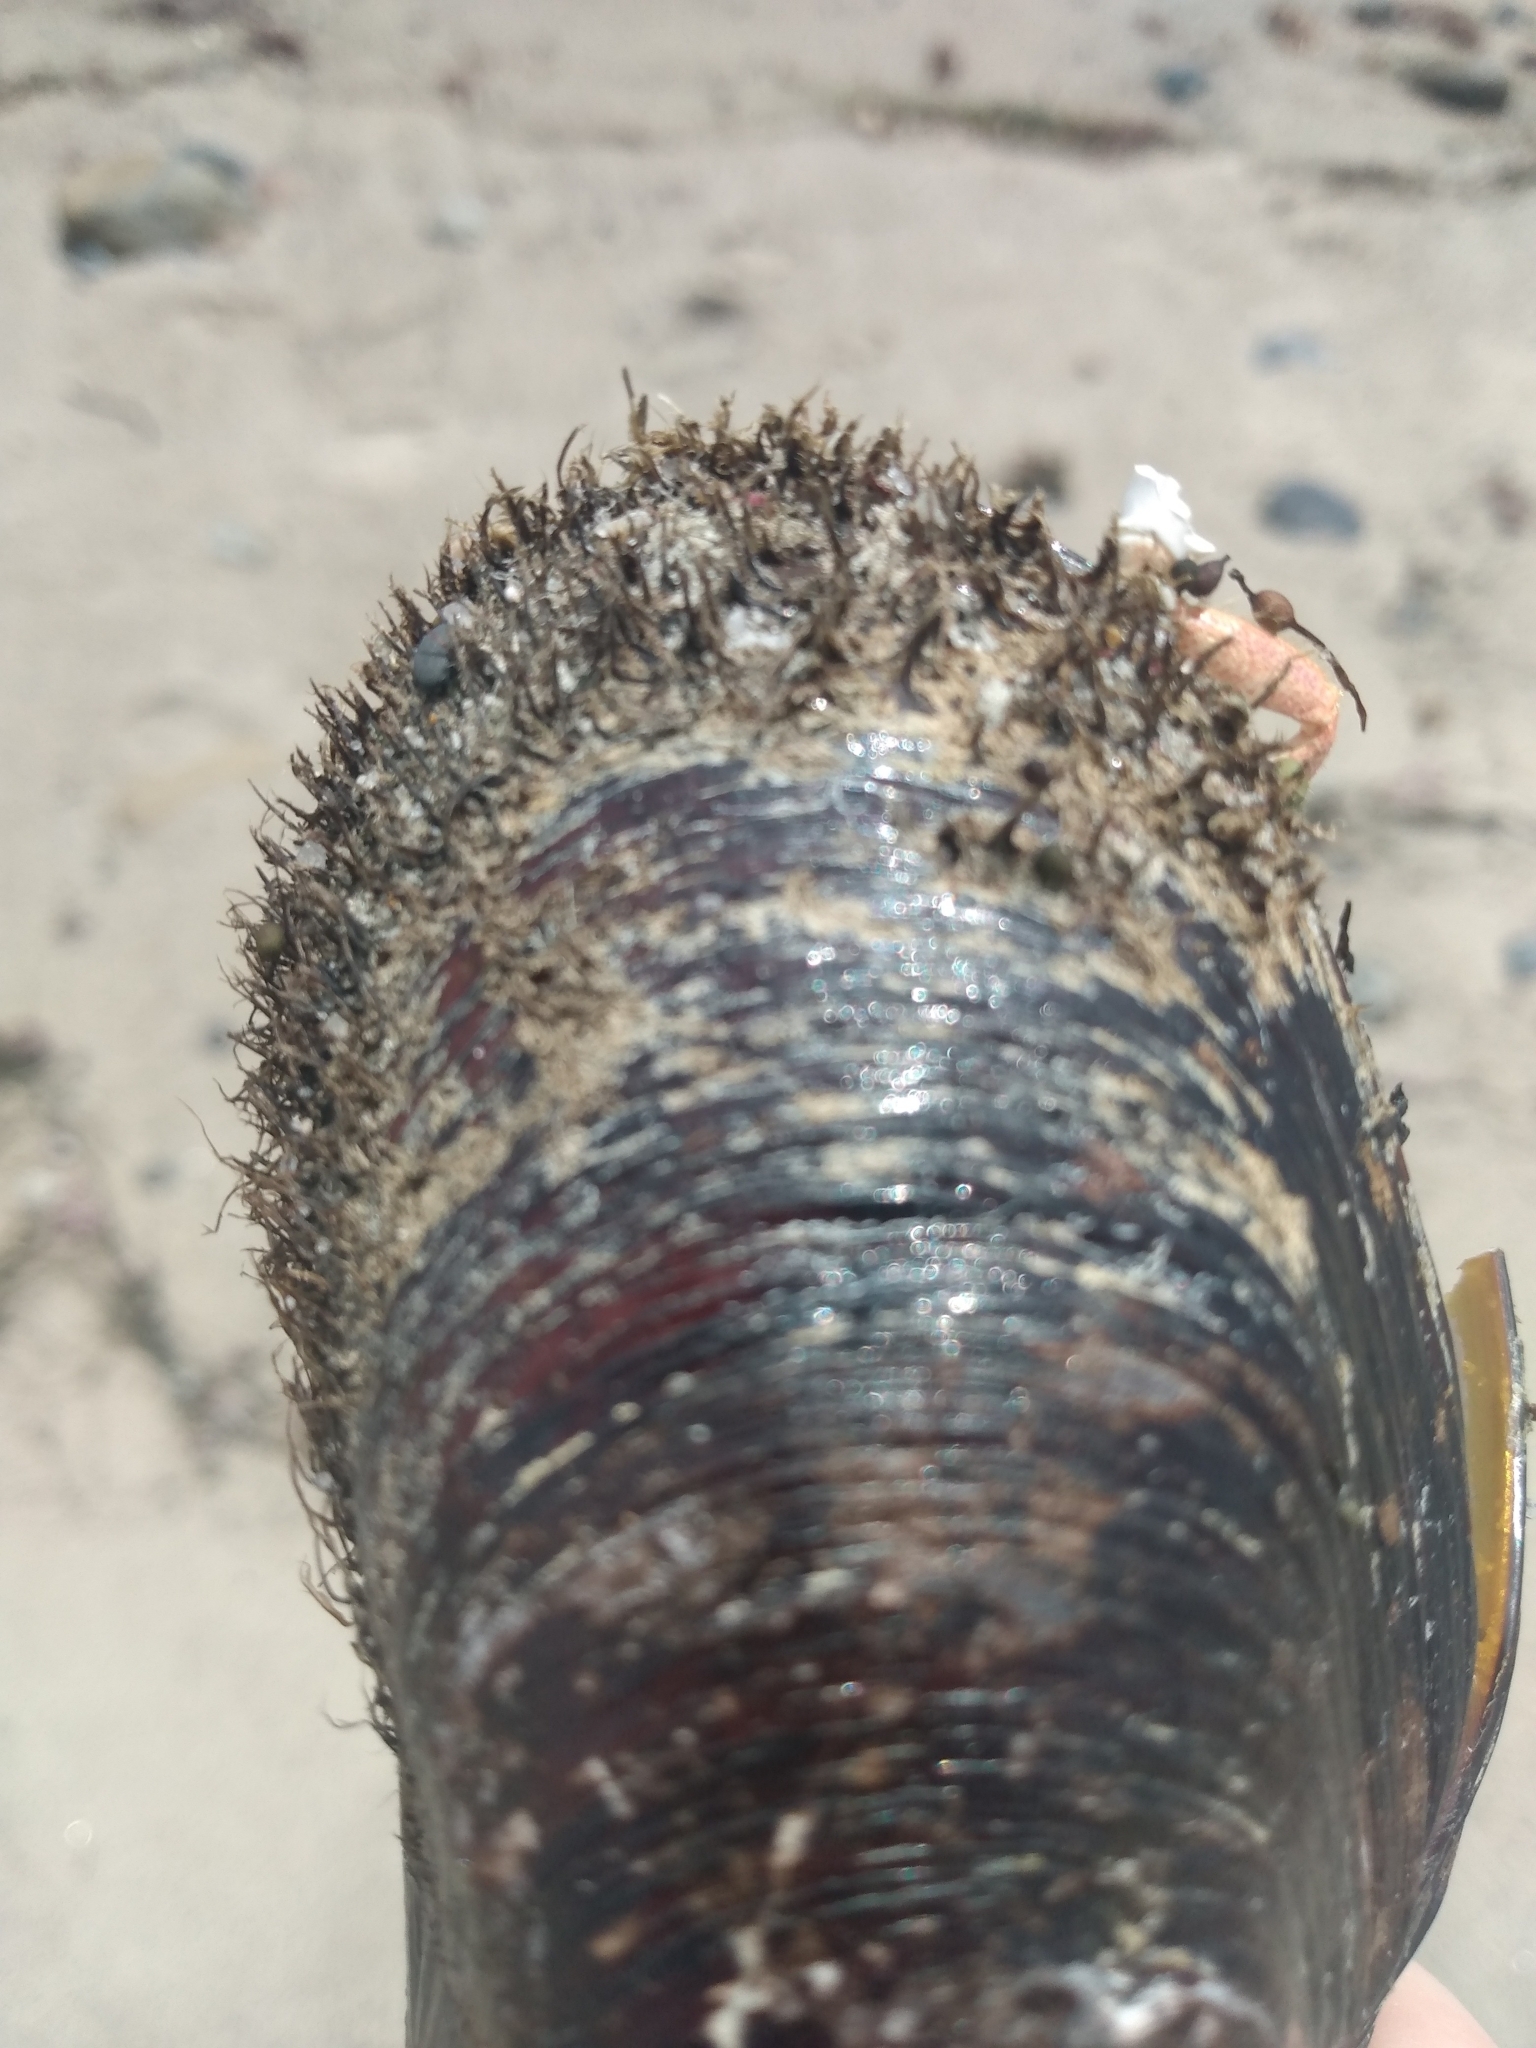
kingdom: Animalia
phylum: Mollusca
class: Bivalvia
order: Mytilida
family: Mytilidae
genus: Modiolus
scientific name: Modiolus capax
